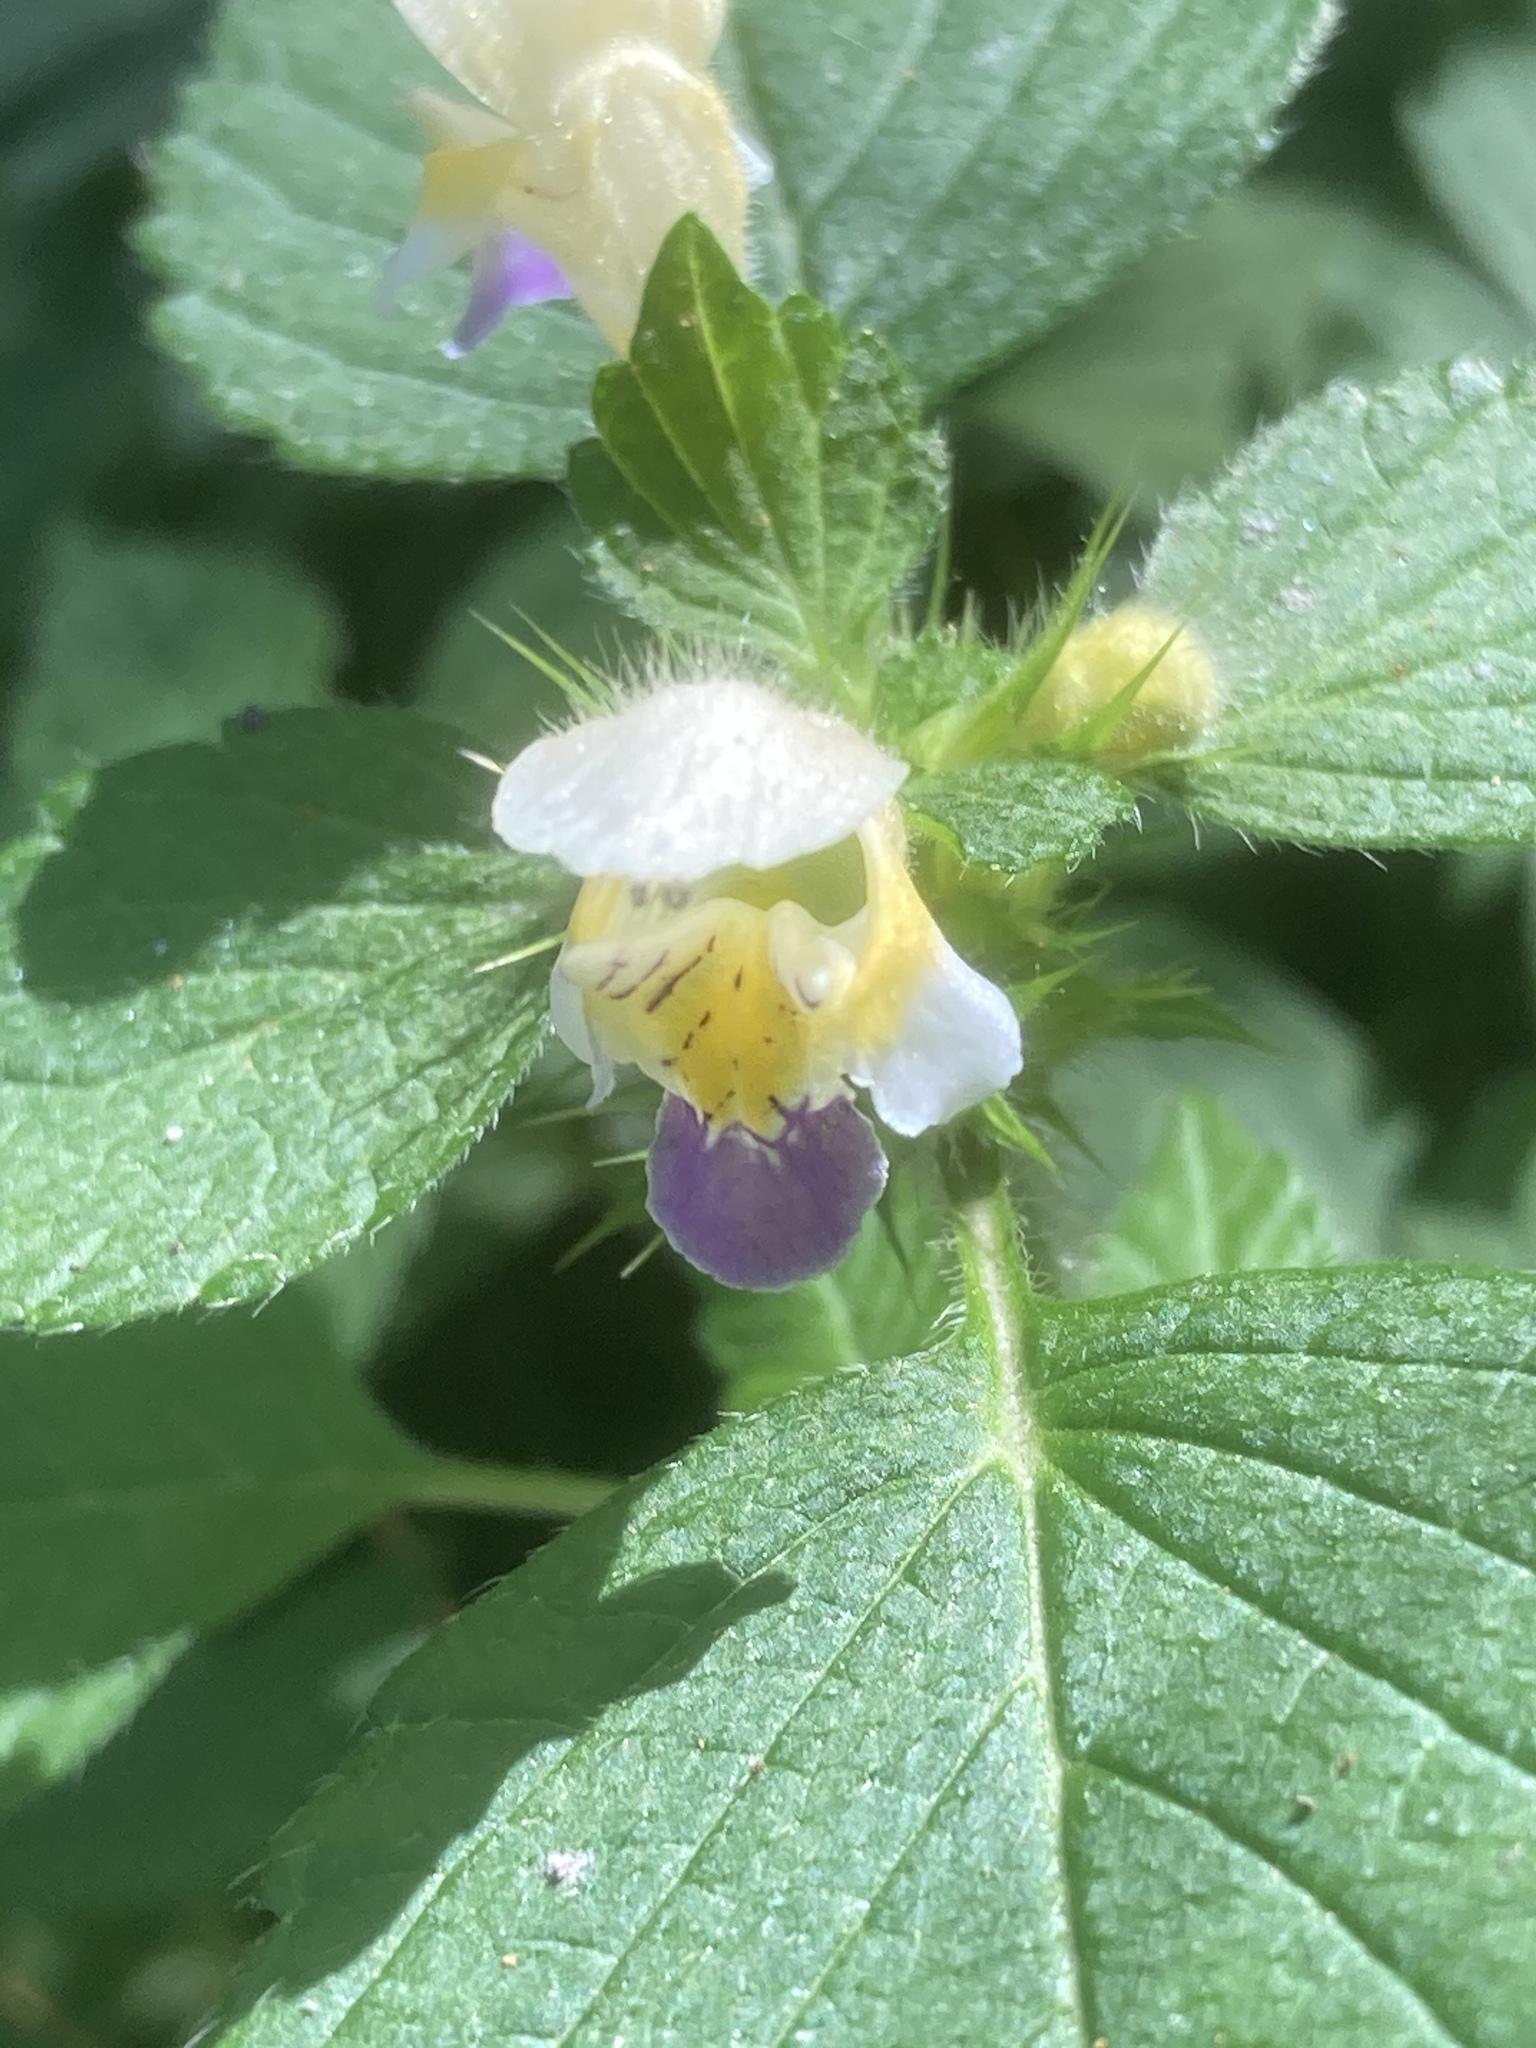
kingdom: Plantae
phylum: Tracheophyta
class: Magnoliopsida
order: Lamiales
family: Lamiaceae
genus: Galeopsis
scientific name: Galeopsis speciosa
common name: Large-flowered hemp-nettle
